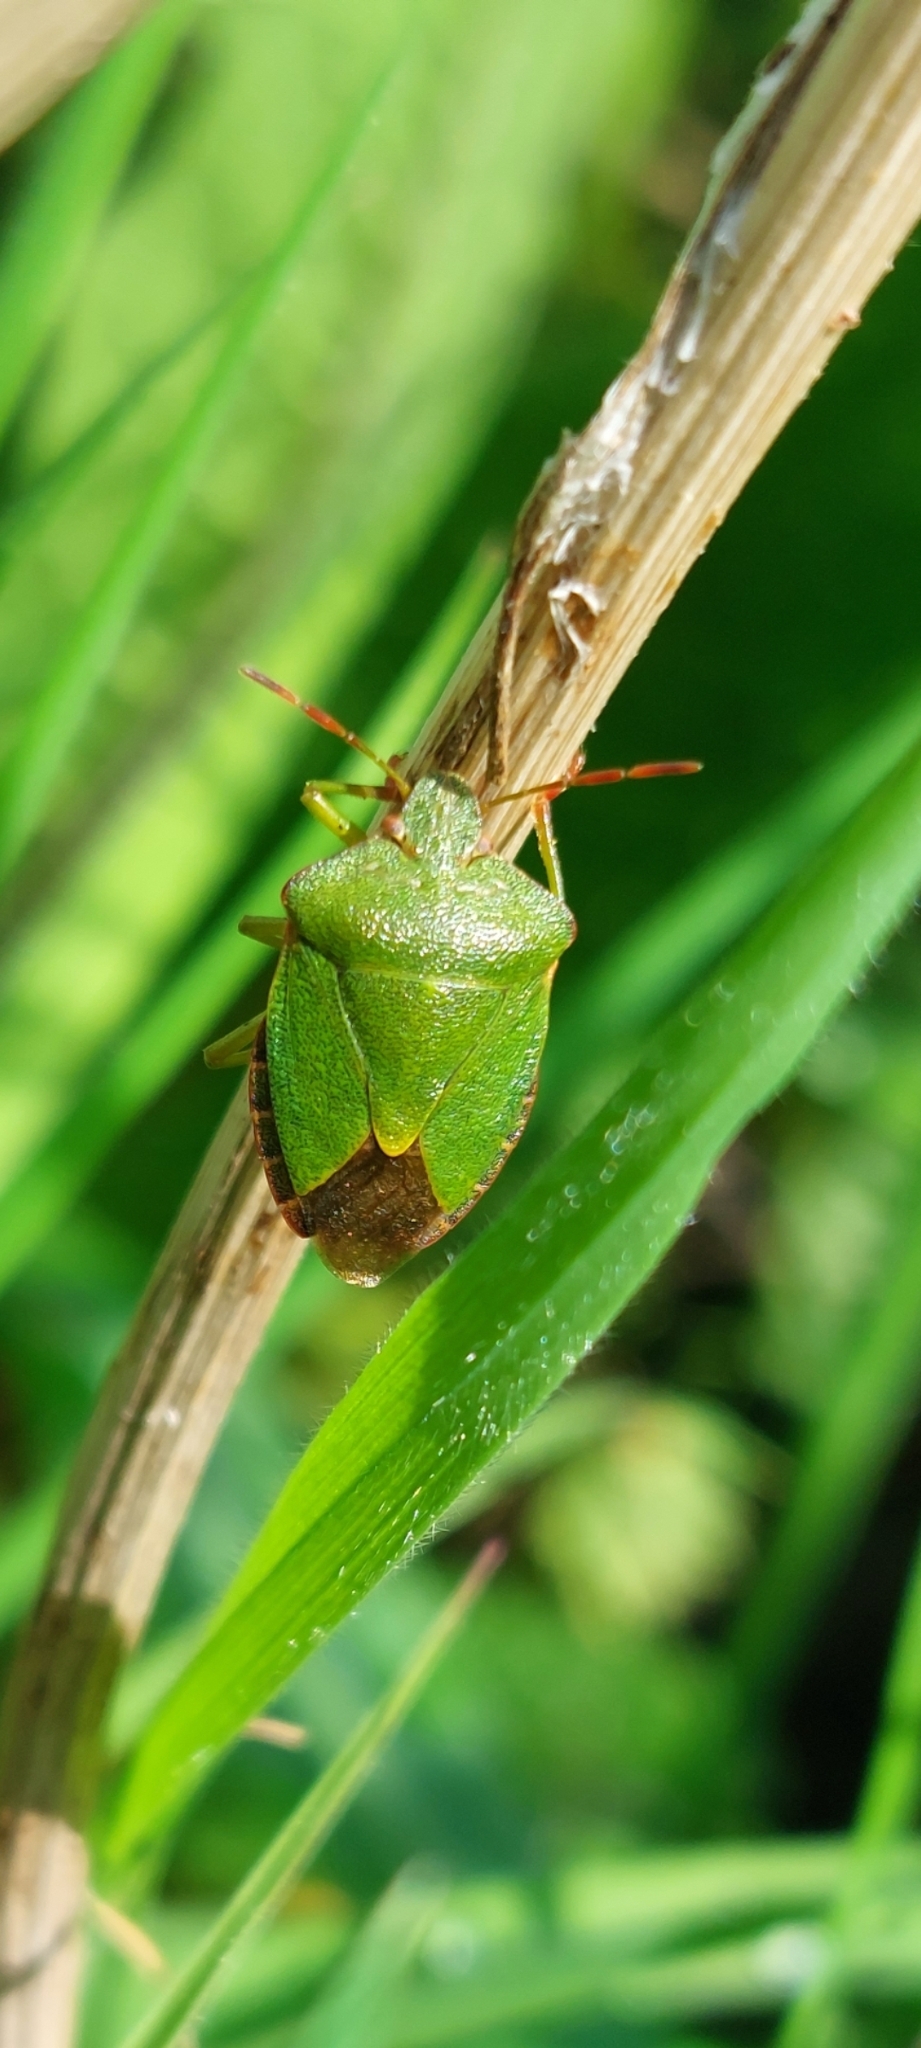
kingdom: Animalia
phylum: Arthropoda
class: Insecta
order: Hemiptera
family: Pentatomidae
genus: Palomena
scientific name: Palomena prasina
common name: Green shieldbug
